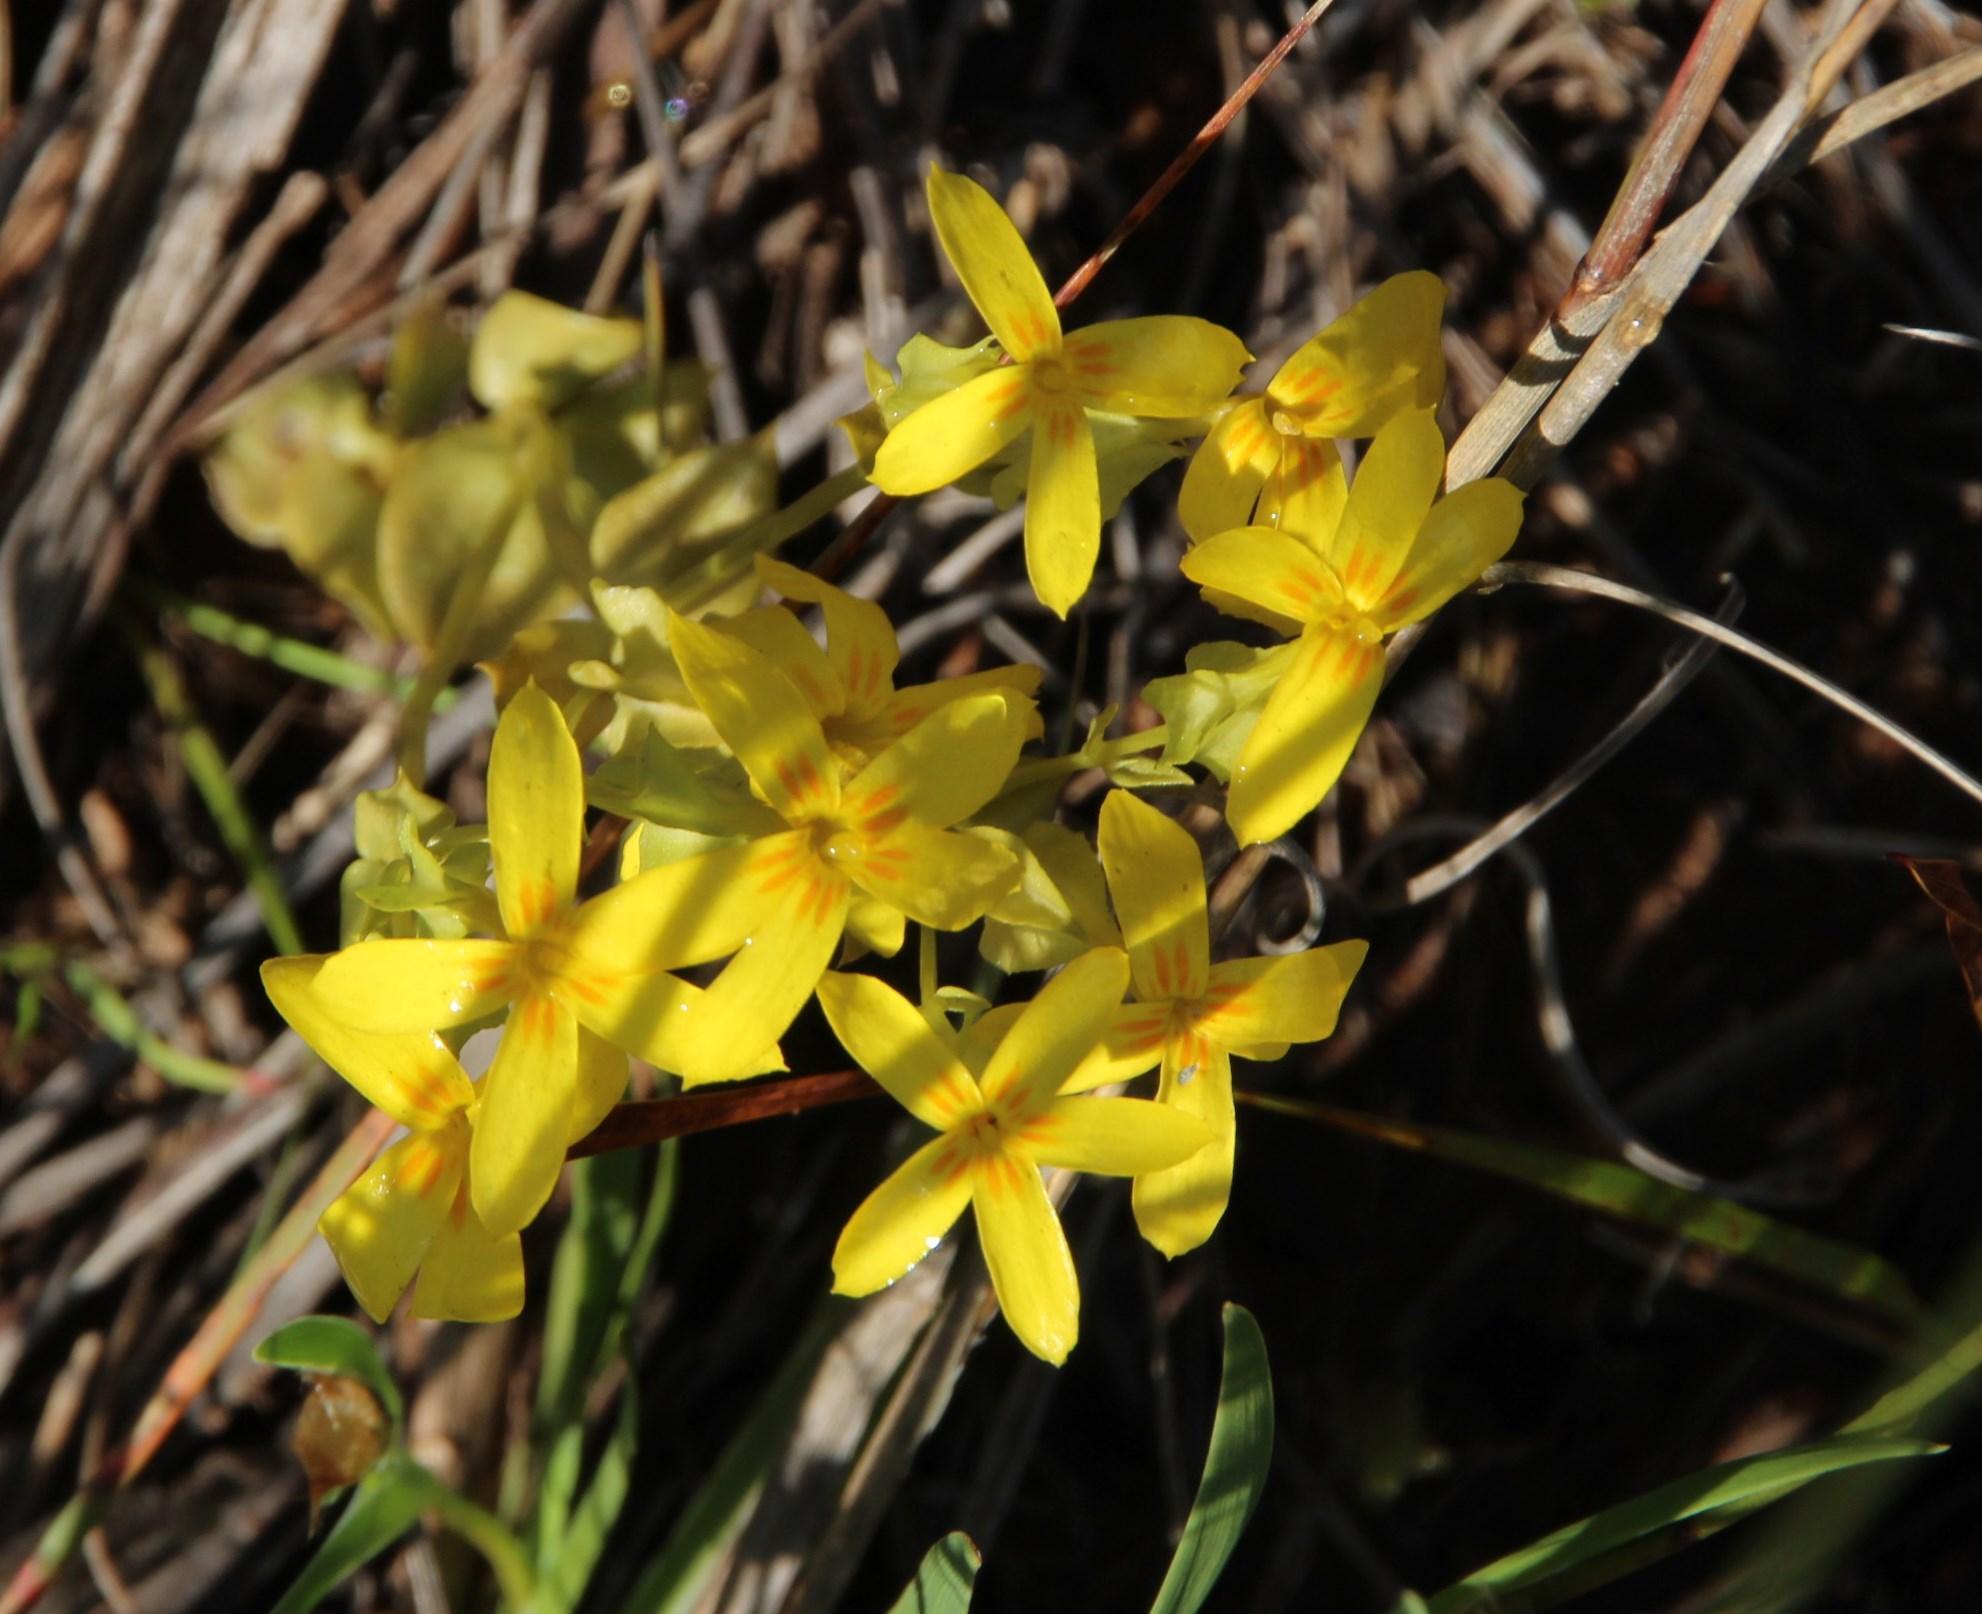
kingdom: Plantae
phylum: Tracheophyta
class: Magnoliopsida
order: Gentianales
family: Gentianaceae
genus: Sebaea
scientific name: Sebaea exacoides
